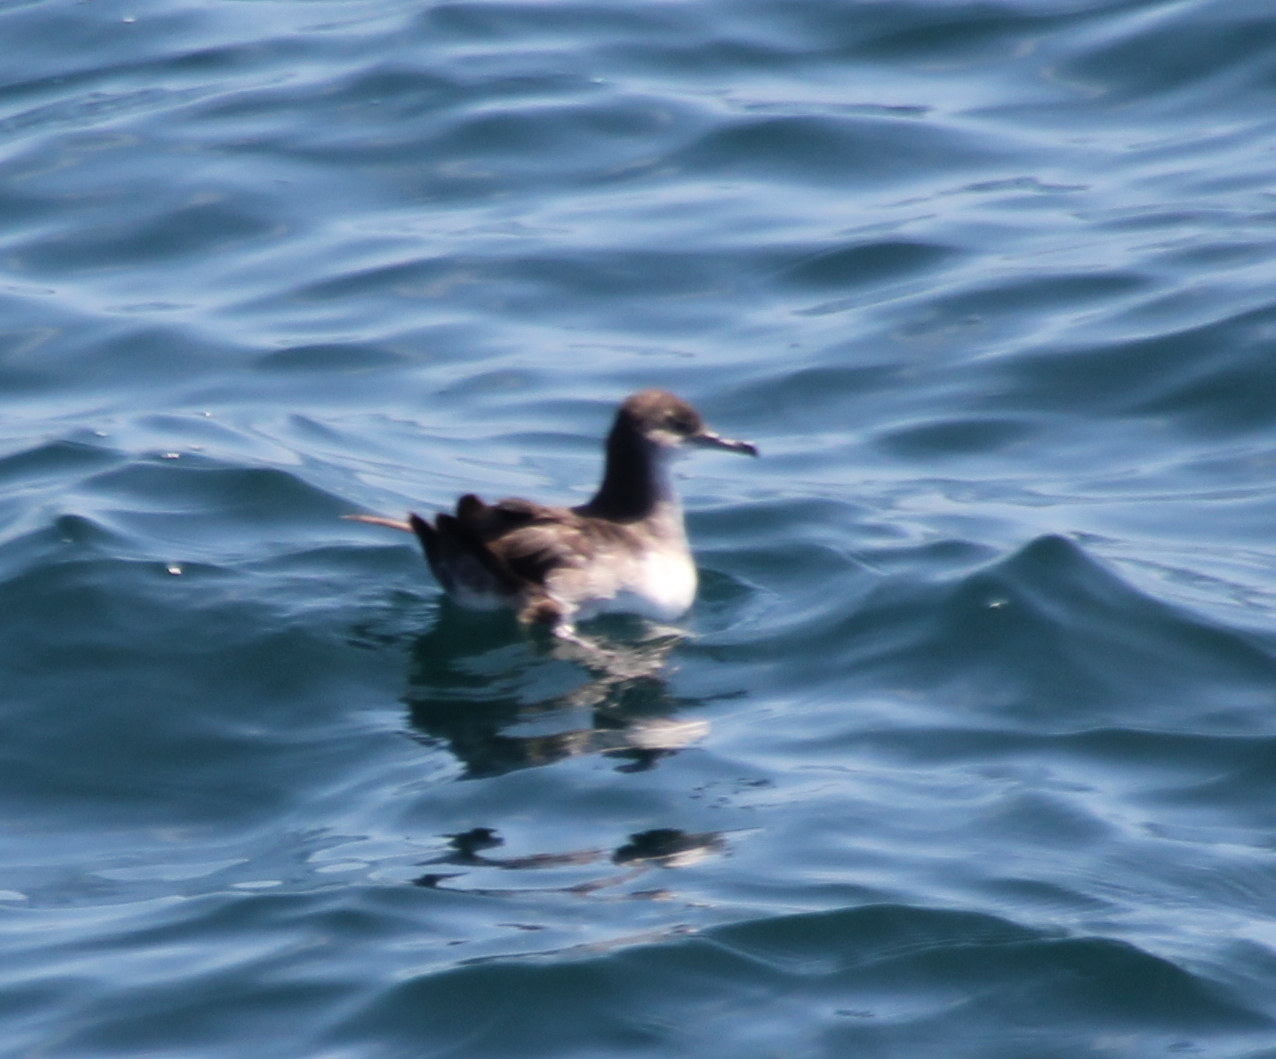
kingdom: Animalia
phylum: Chordata
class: Aves
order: Procellariiformes
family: Procellariidae
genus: Puffinus
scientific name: Puffinus opisthomelas
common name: Black-vented shearwater
